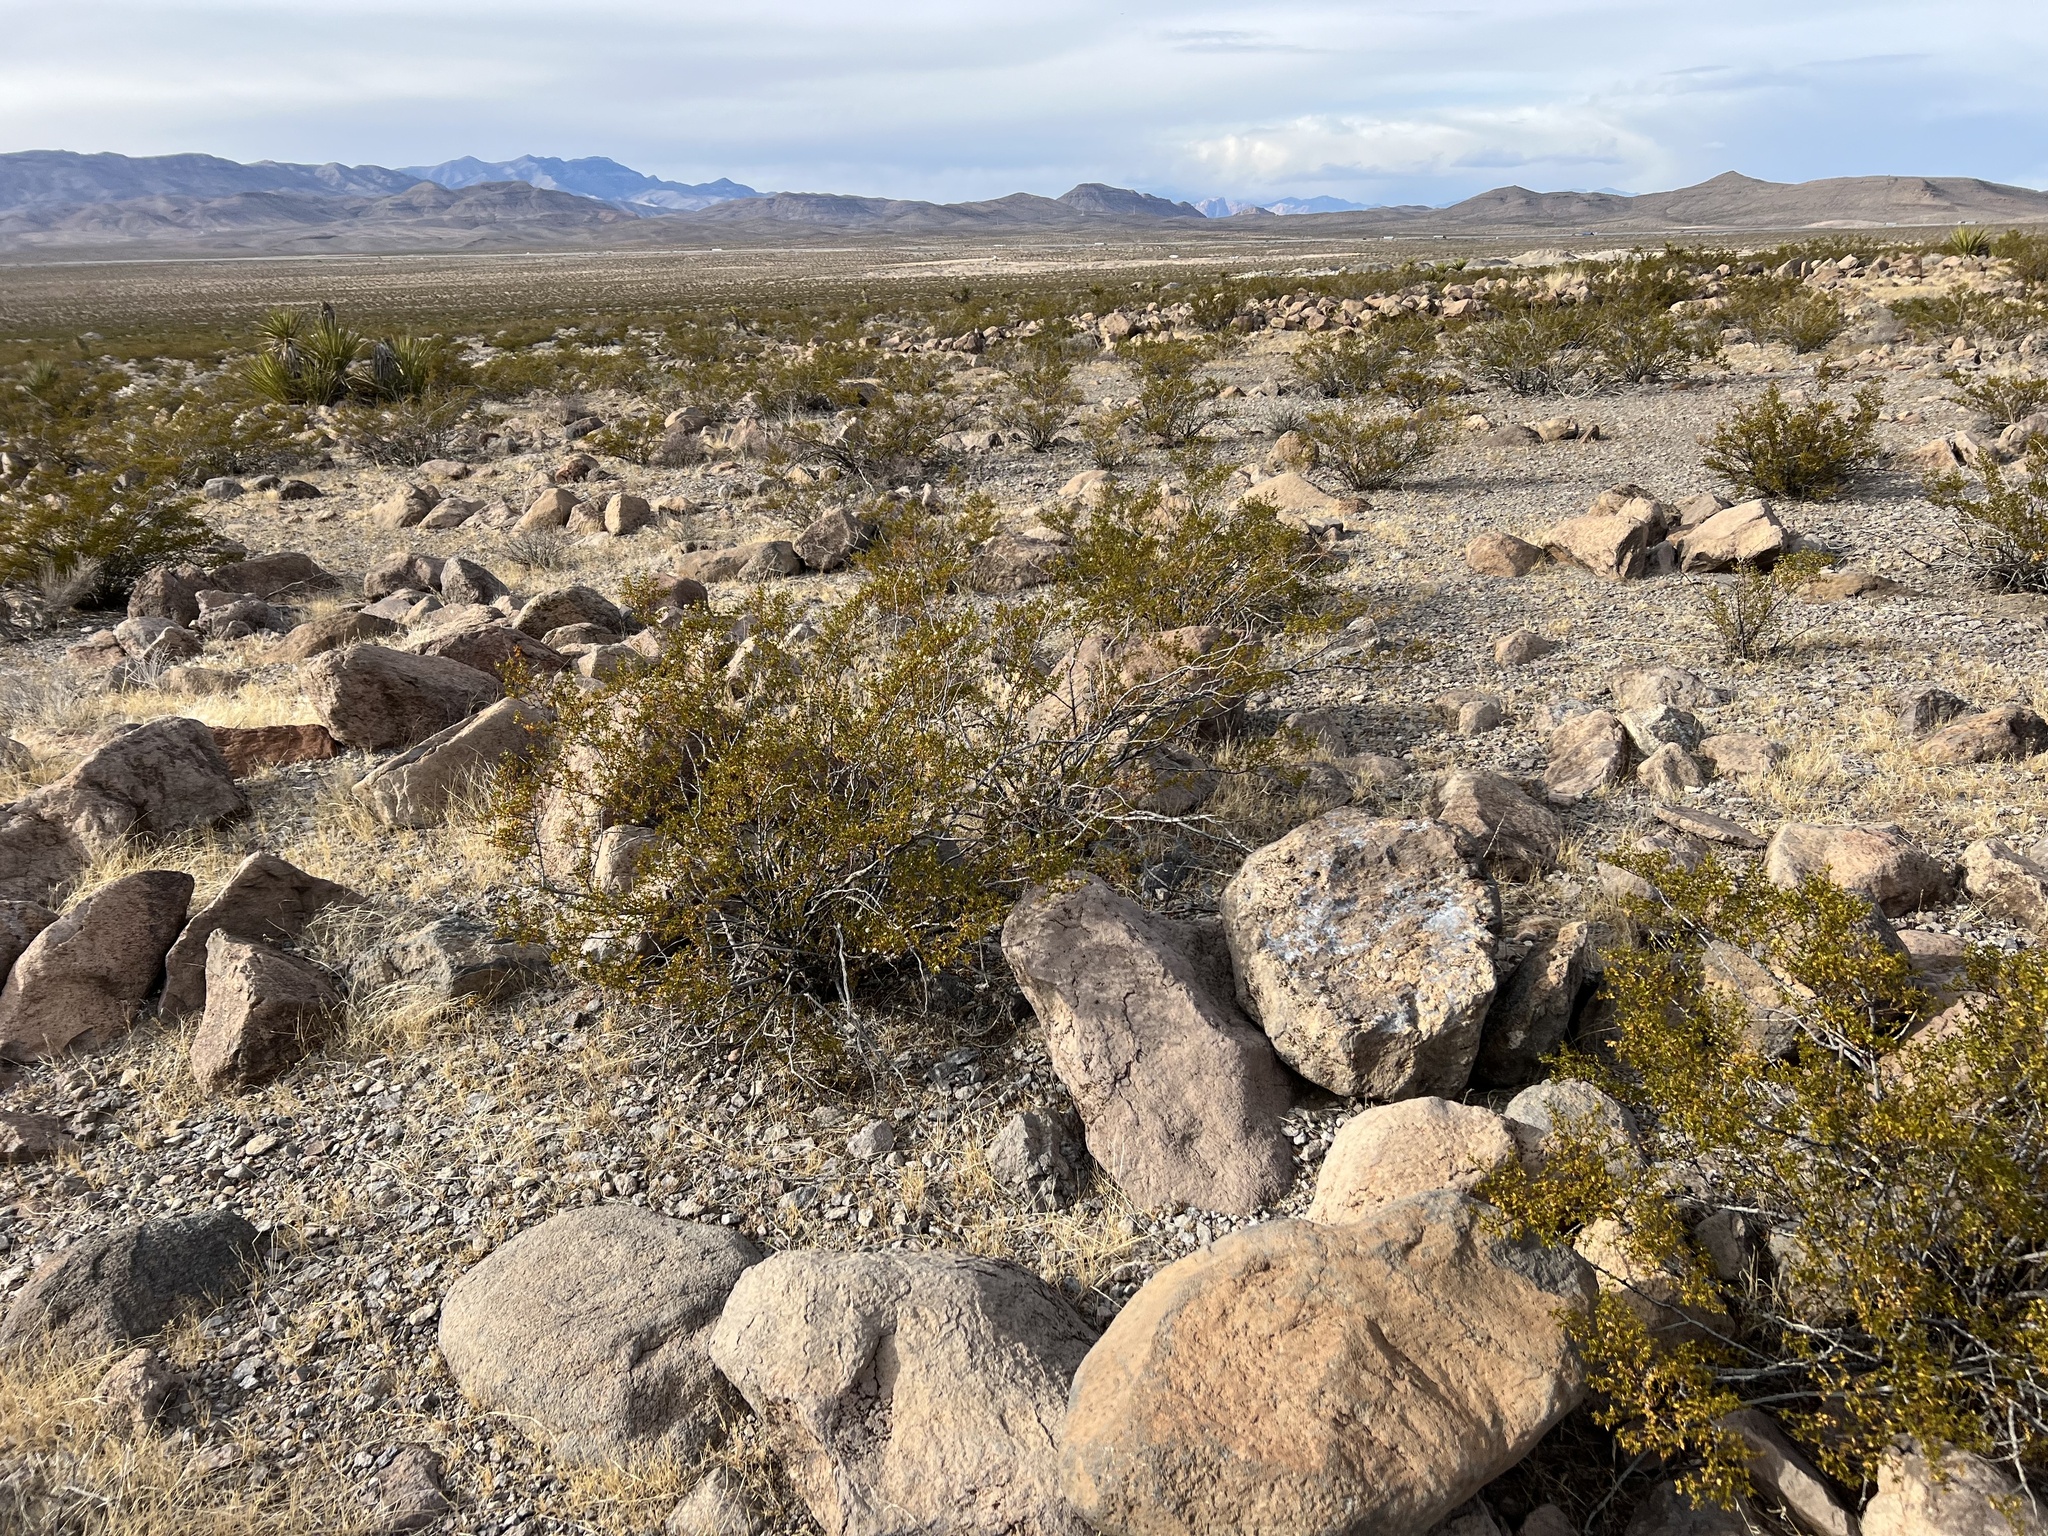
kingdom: Plantae
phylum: Tracheophyta
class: Magnoliopsida
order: Zygophyllales
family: Zygophyllaceae
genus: Larrea
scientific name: Larrea tridentata
